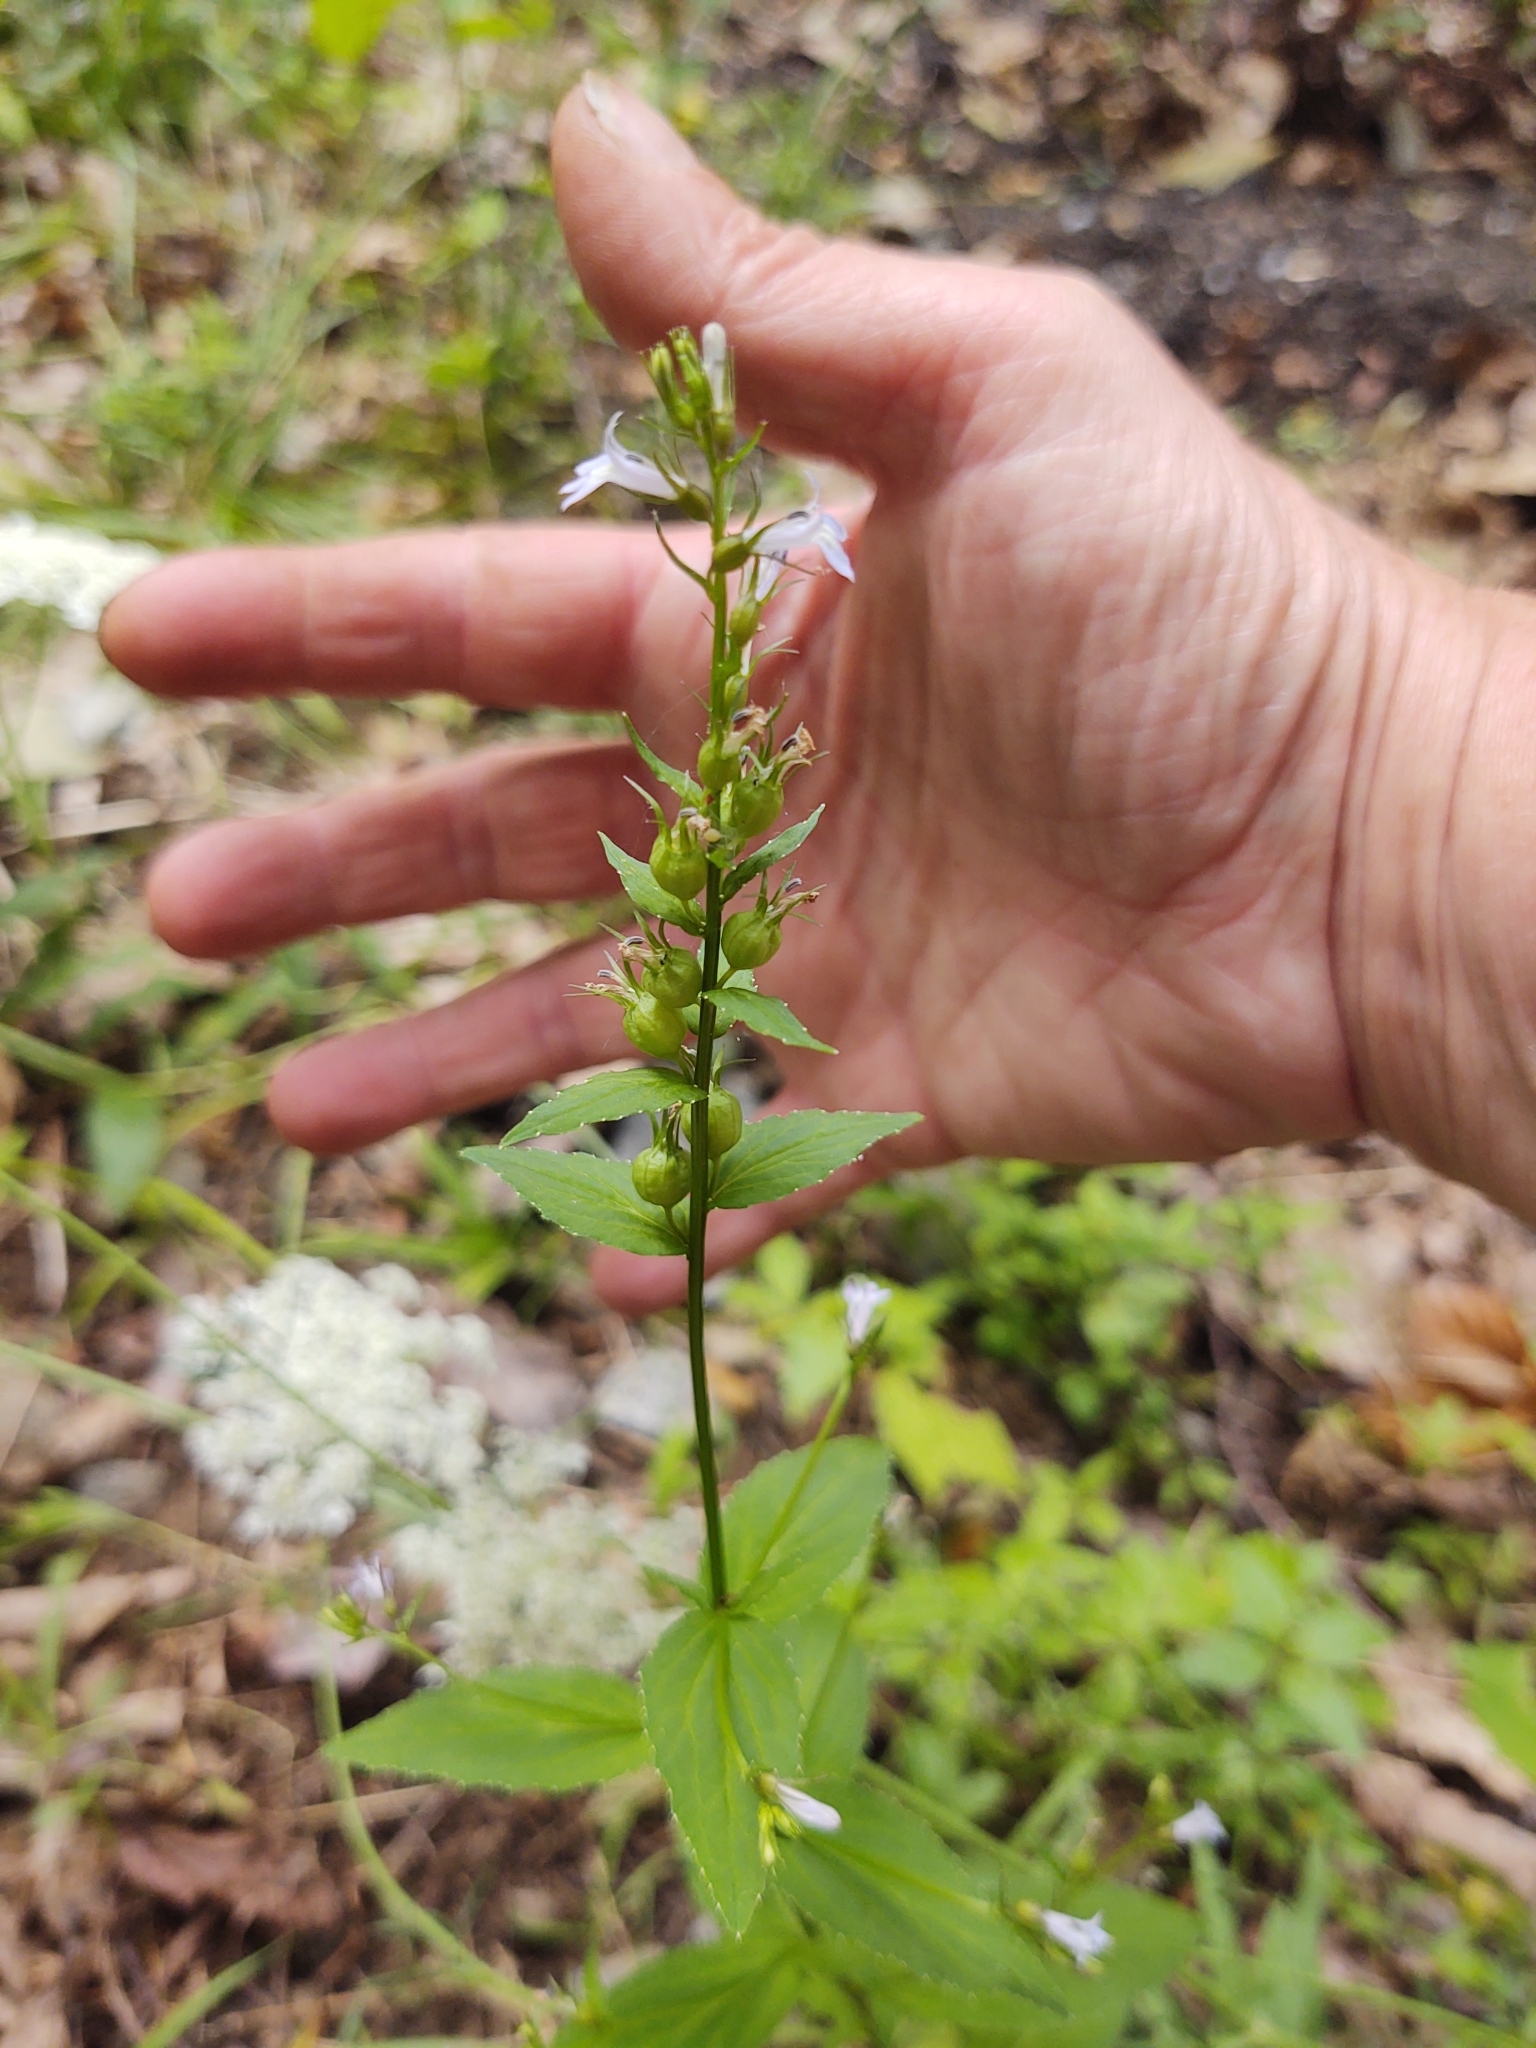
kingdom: Plantae
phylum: Tracheophyta
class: Magnoliopsida
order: Asterales
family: Campanulaceae
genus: Lobelia
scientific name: Lobelia inflata
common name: Indian tobacco
